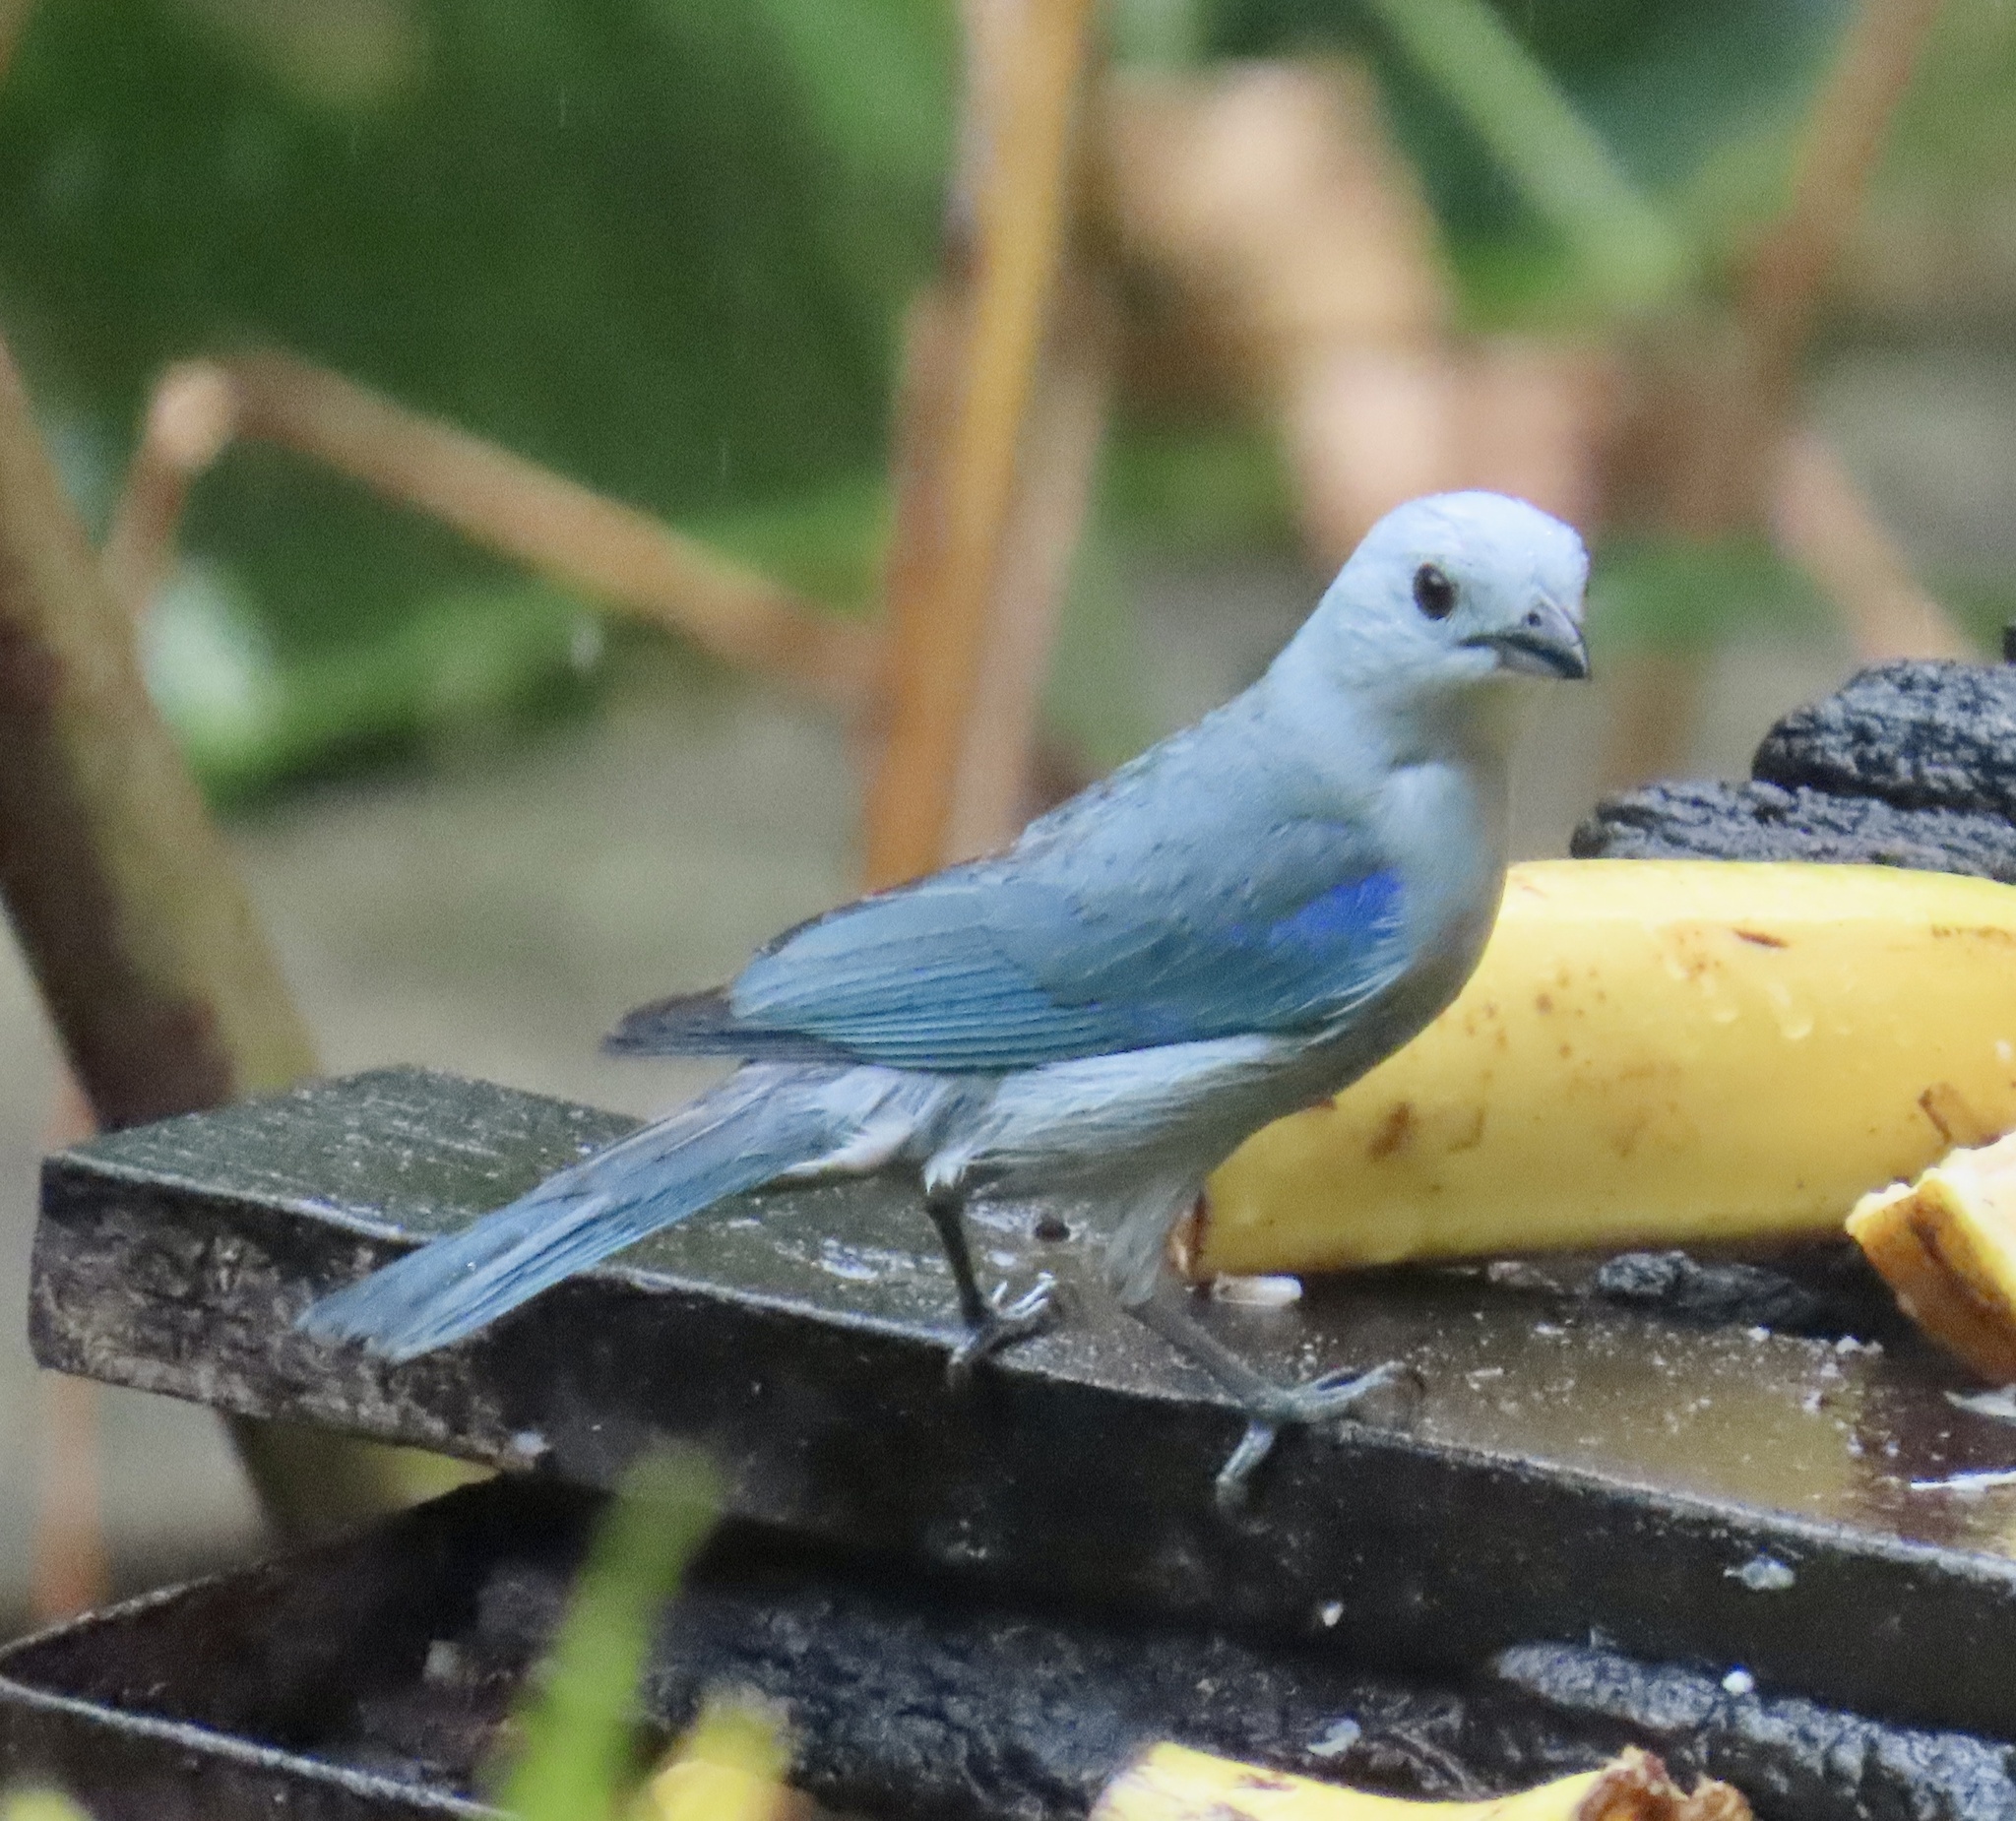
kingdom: Animalia
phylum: Chordata
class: Aves
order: Passeriformes
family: Thraupidae
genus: Thraupis
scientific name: Thraupis episcopus
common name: Blue-grey tanager
